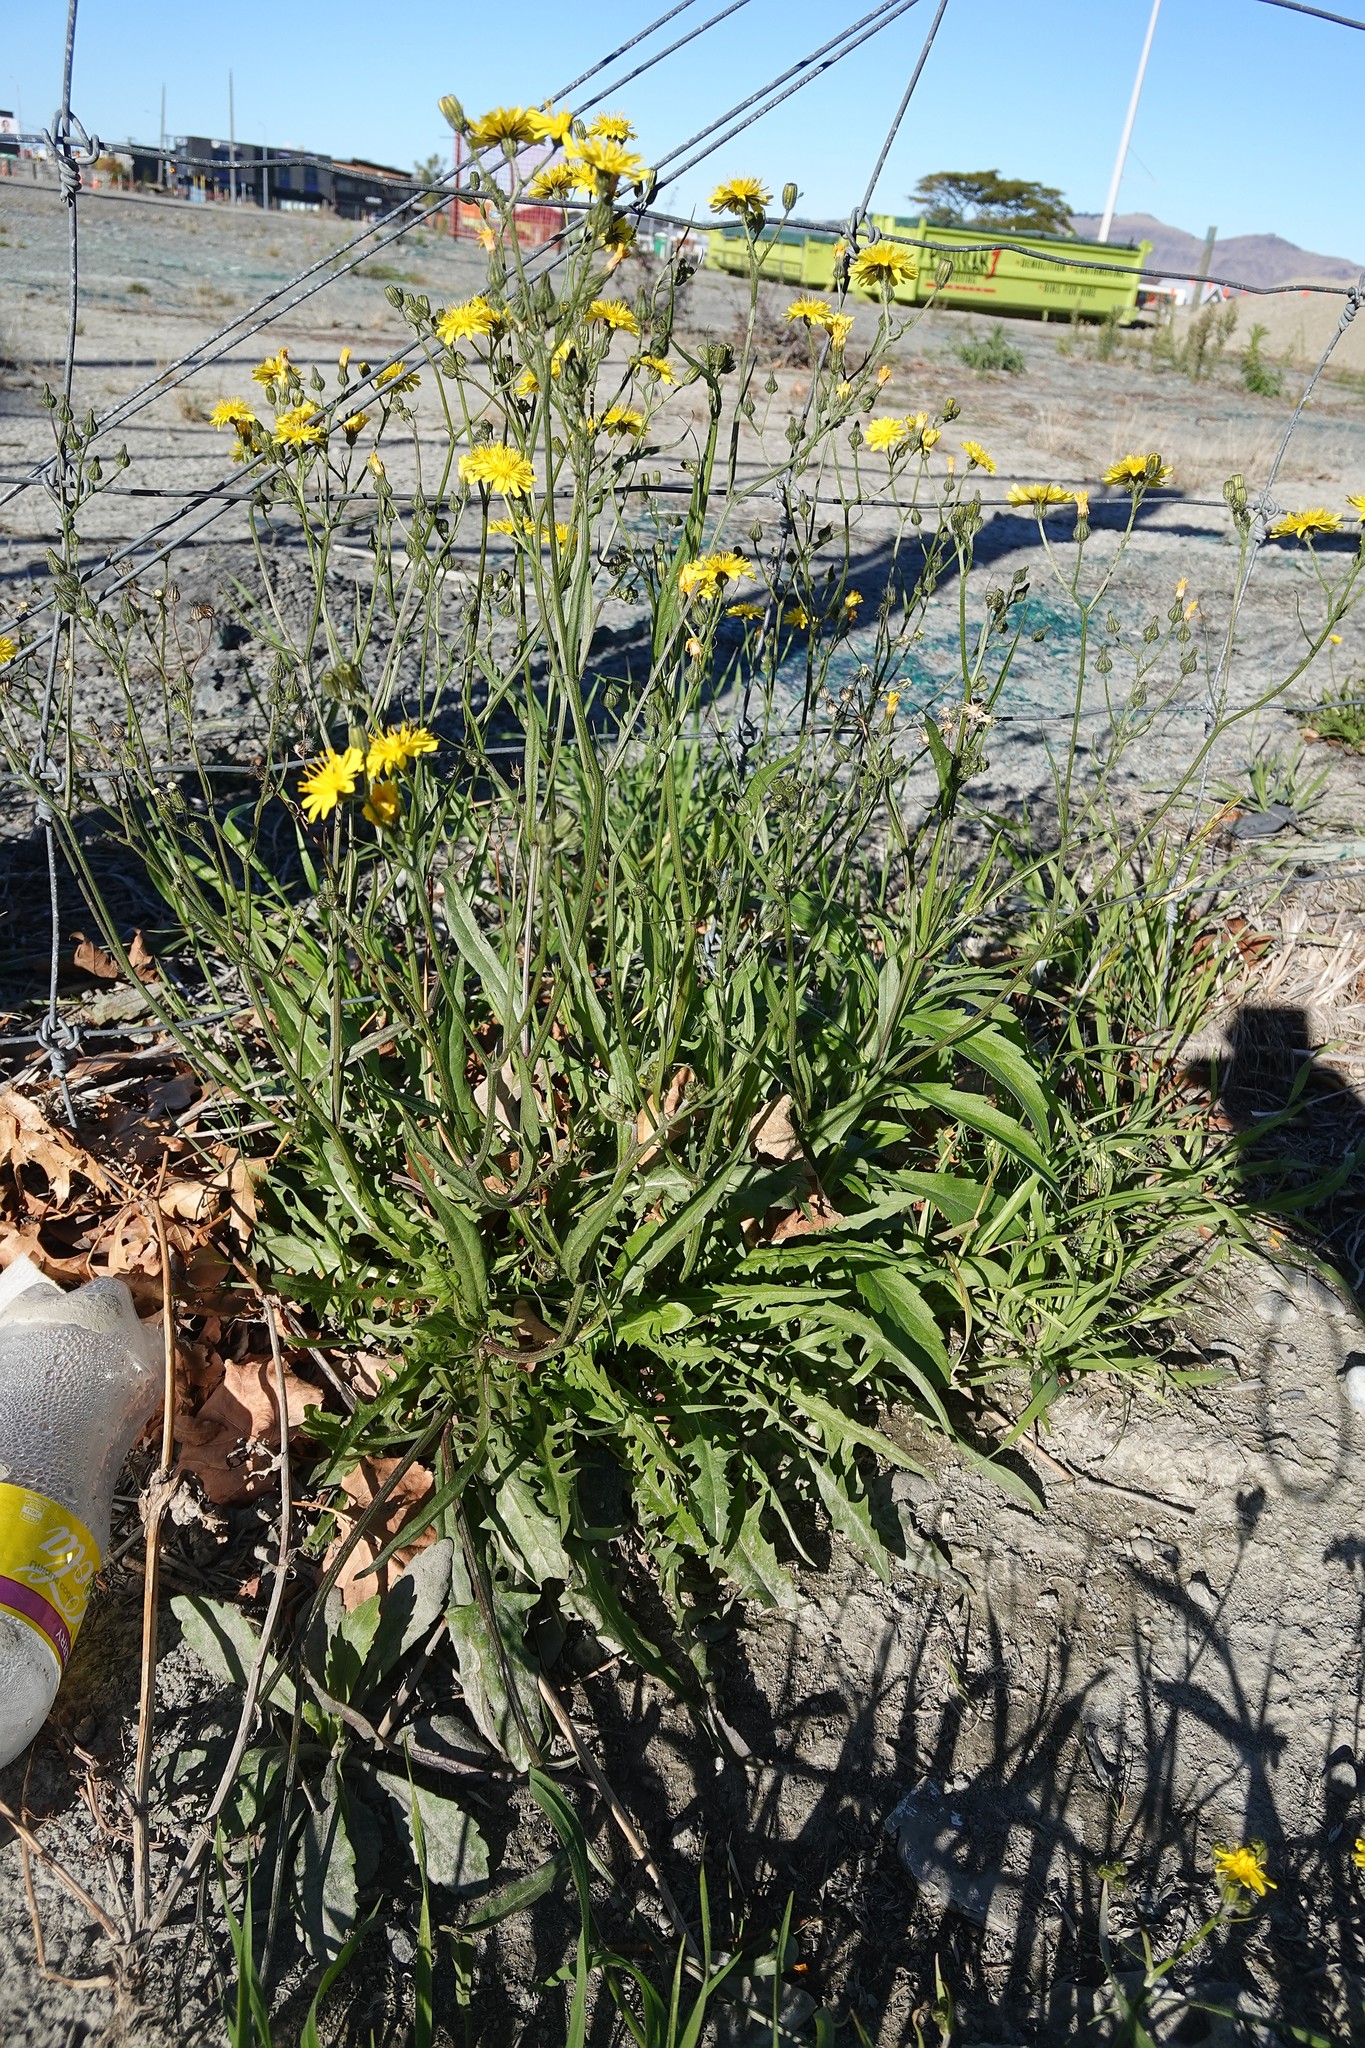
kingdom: Plantae
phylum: Tracheophyta
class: Magnoliopsida
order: Asterales
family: Asteraceae
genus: Crepis
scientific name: Crepis capillaris
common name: Smooth hawksbeard
